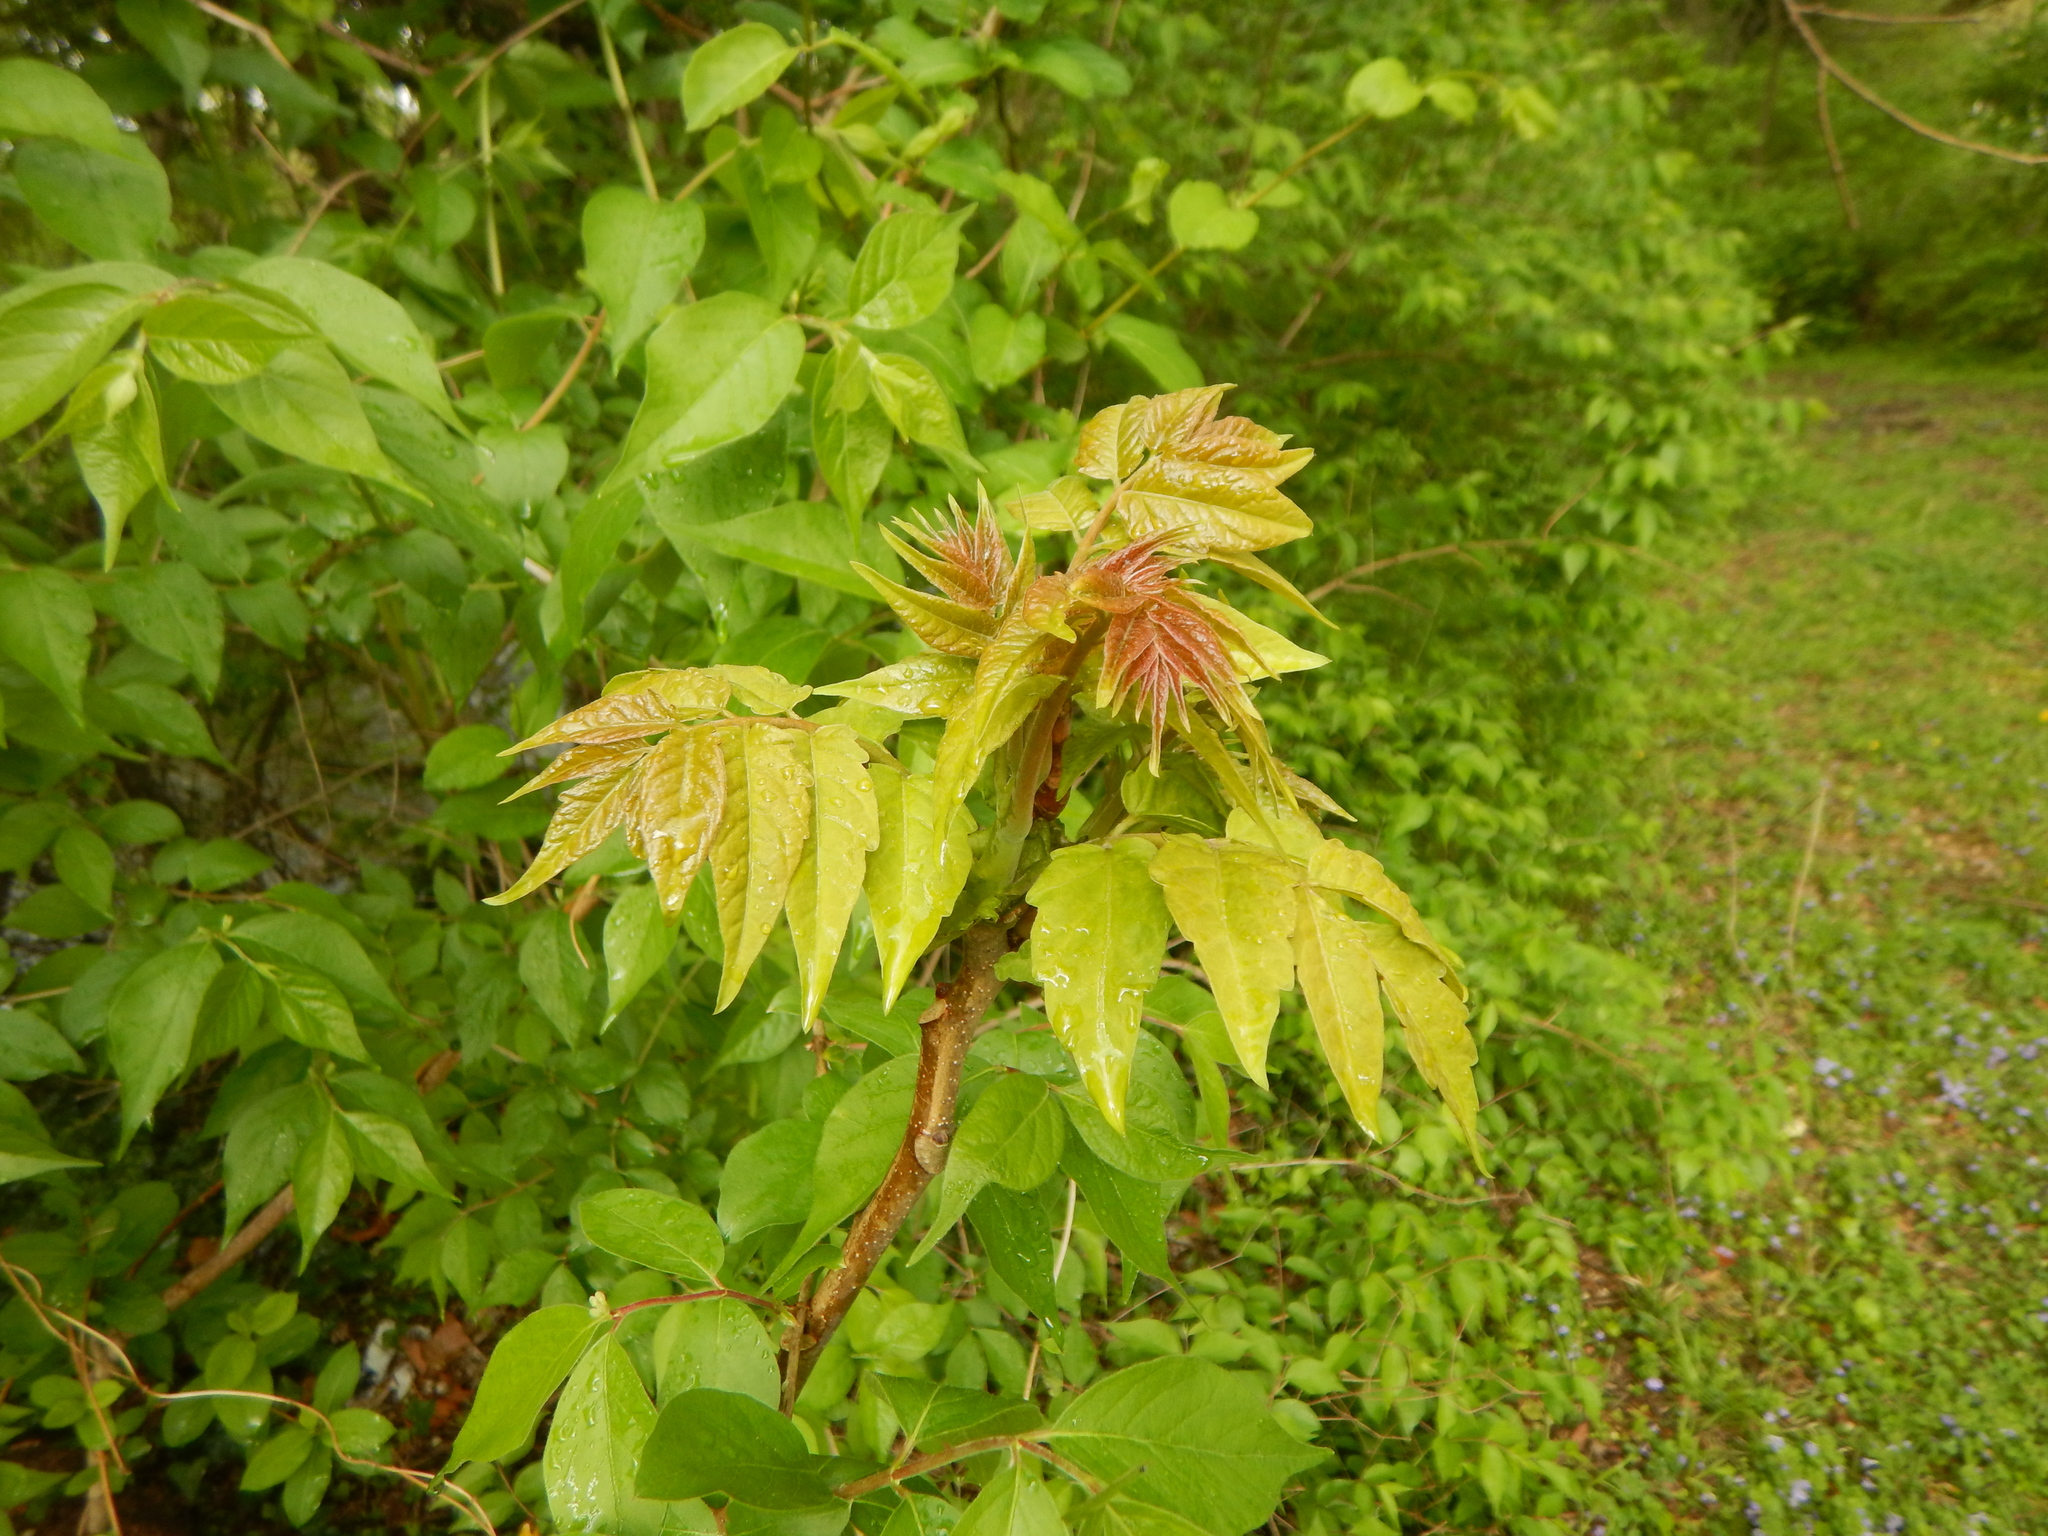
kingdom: Plantae
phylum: Tracheophyta
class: Magnoliopsida
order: Sapindales
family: Simaroubaceae
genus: Ailanthus
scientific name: Ailanthus altissima
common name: Tree-of-heaven
